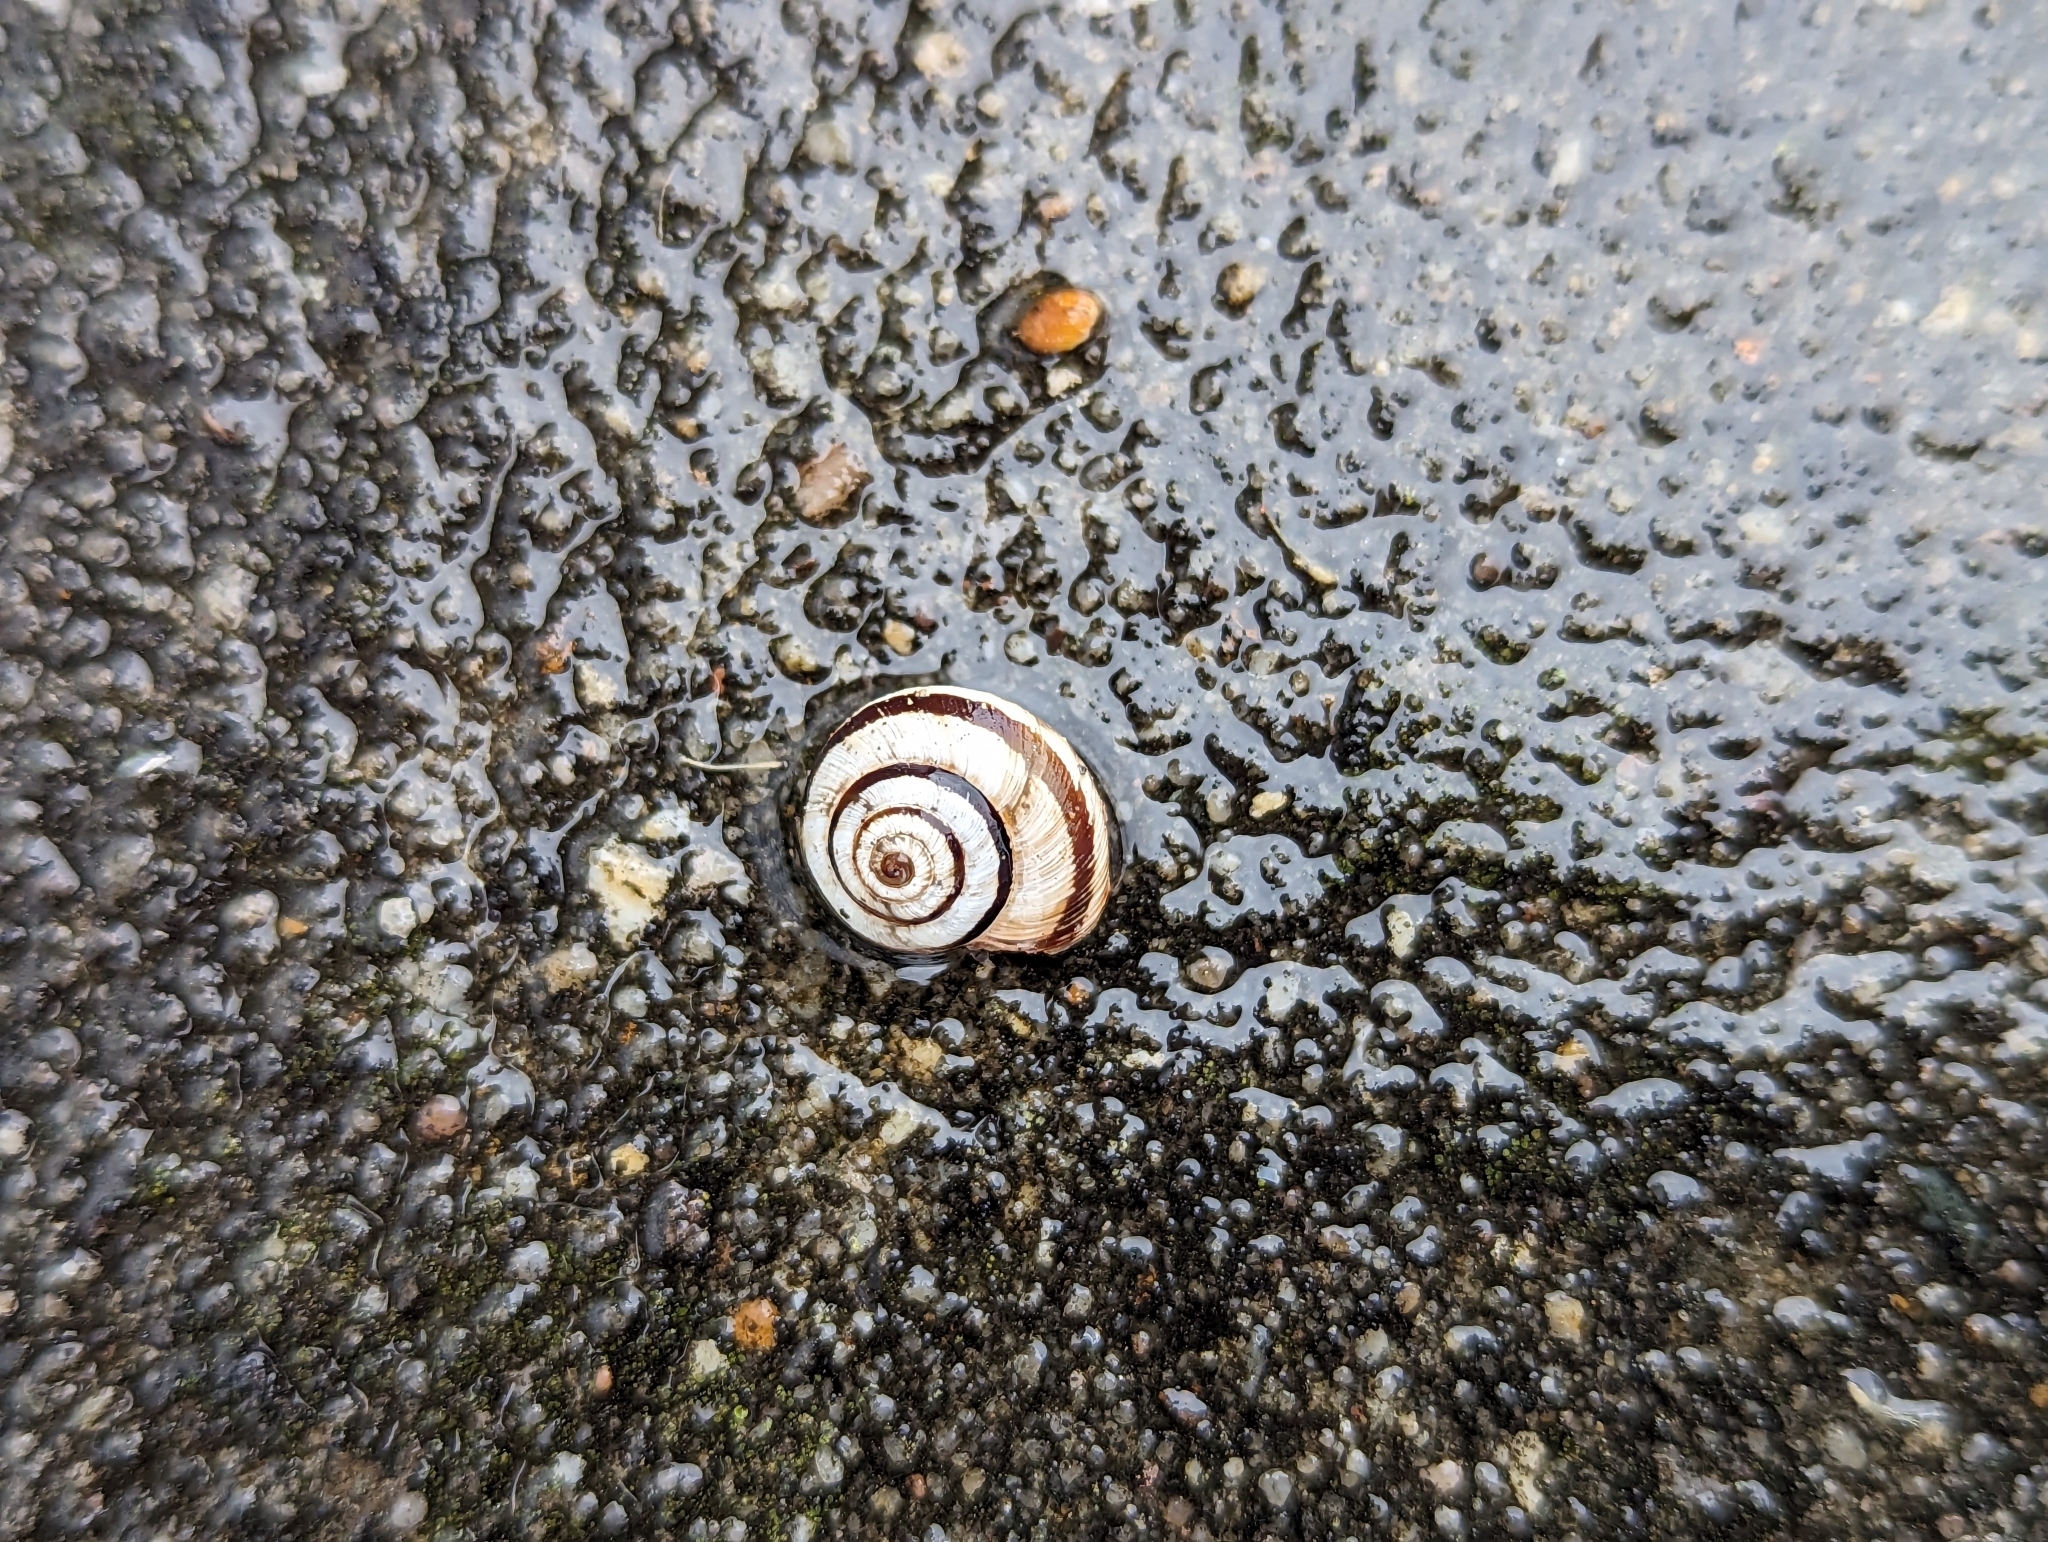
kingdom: Animalia
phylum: Mollusca
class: Gastropoda
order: Stylommatophora
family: Geomitridae
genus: Cernuella
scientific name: Cernuella virgata
